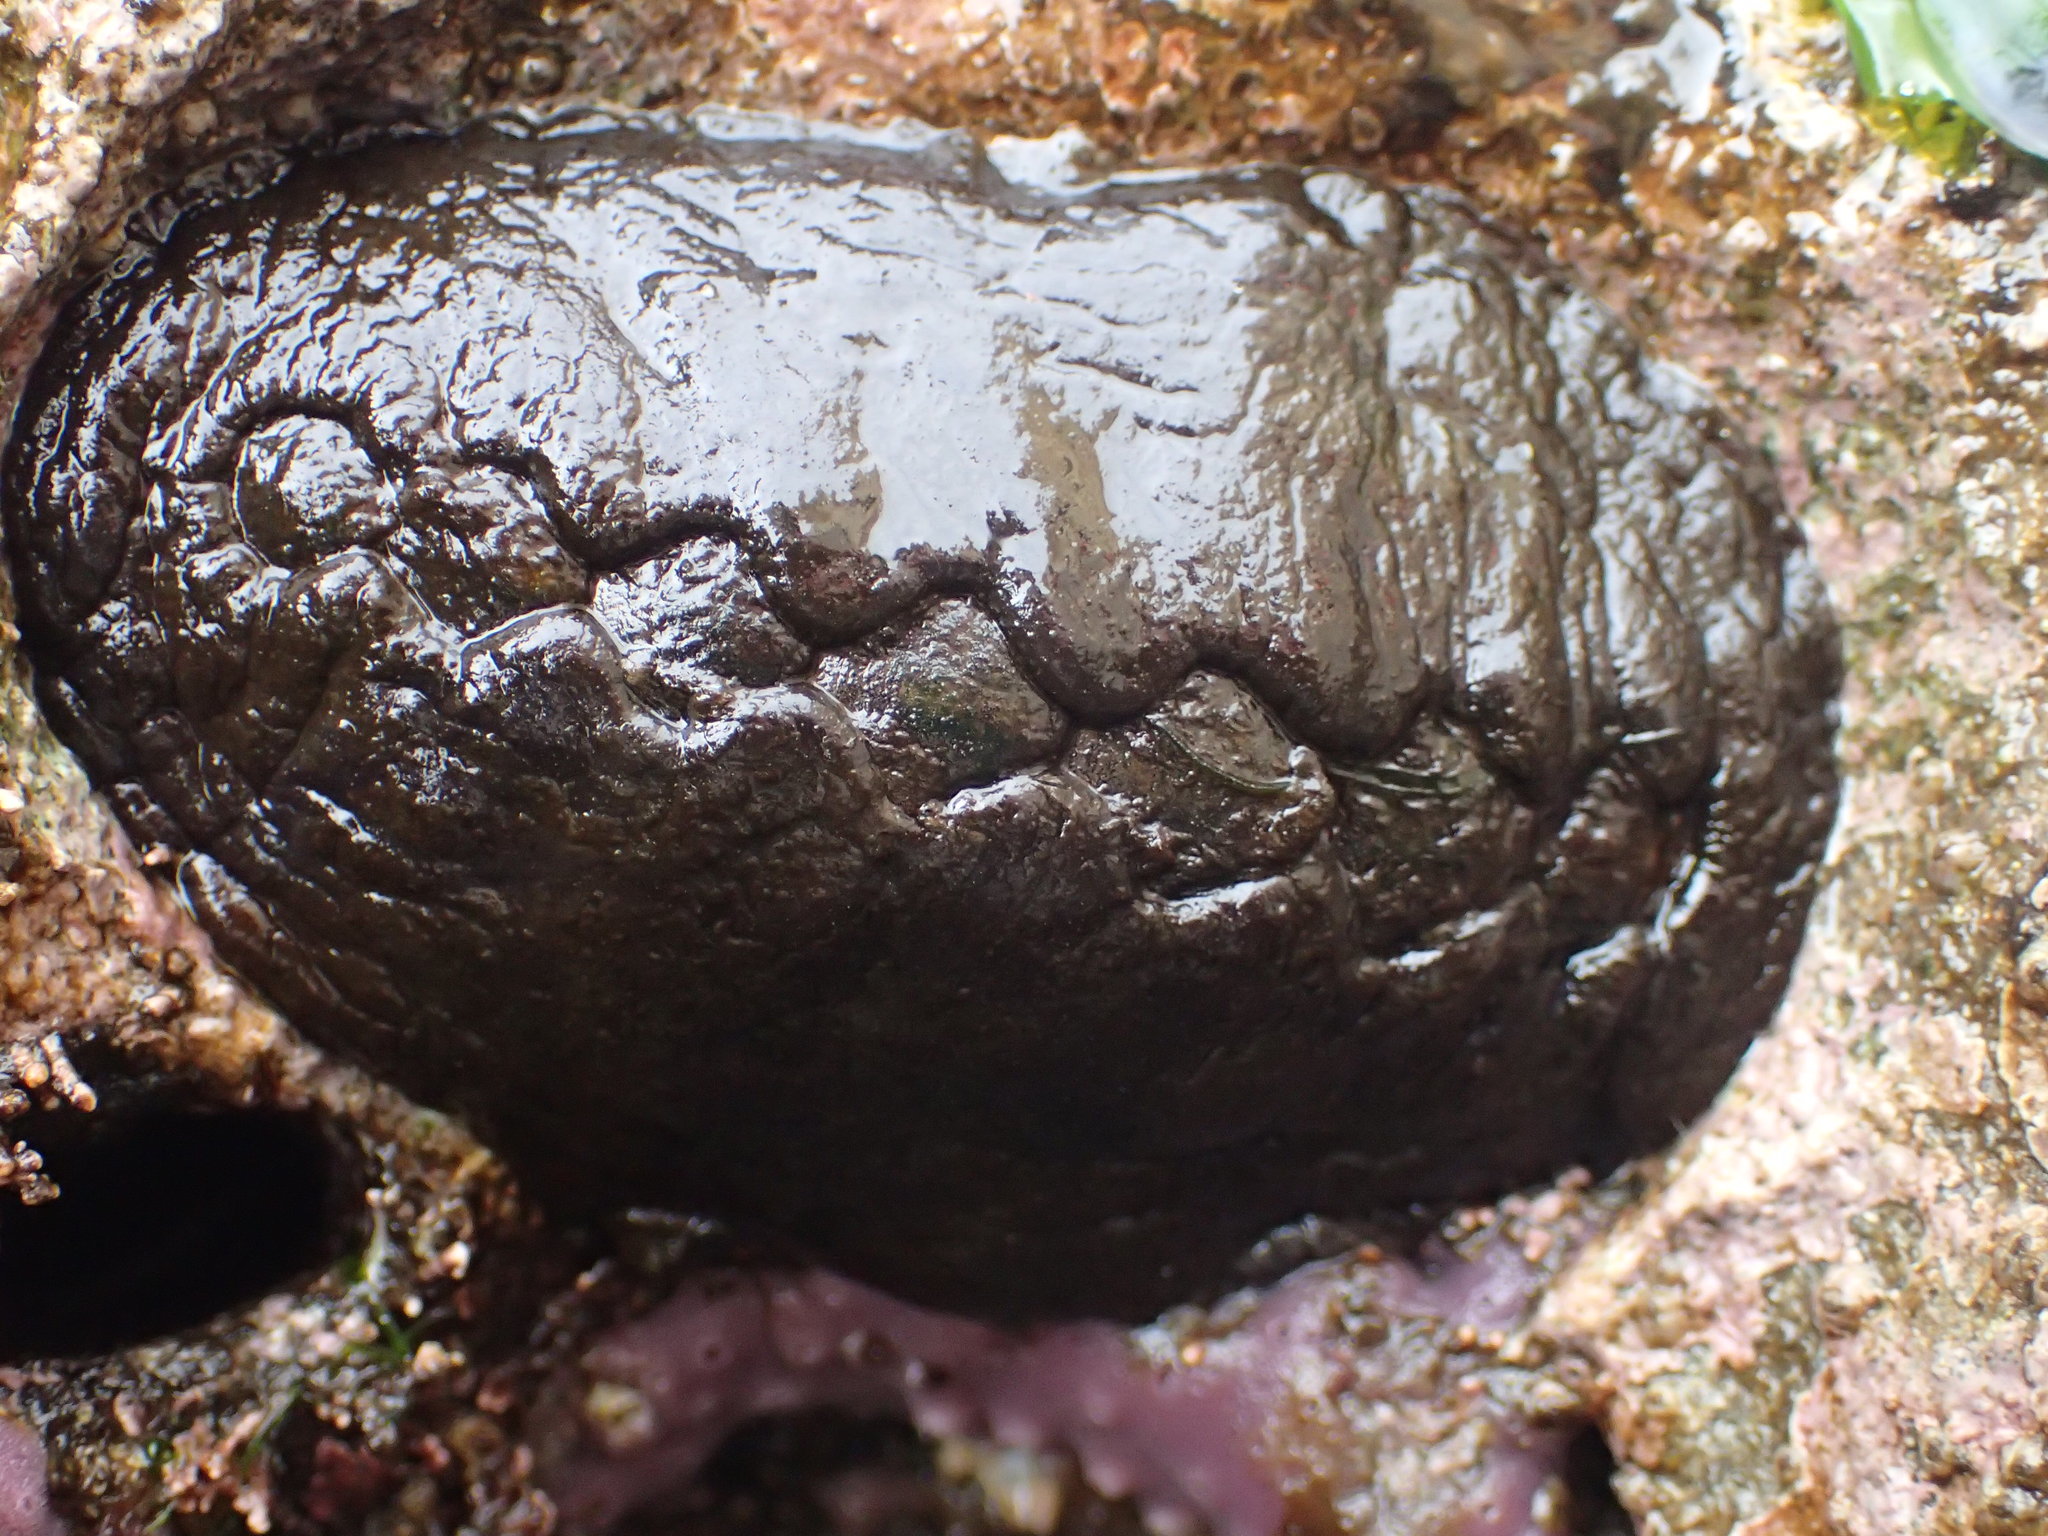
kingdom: Animalia
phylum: Mollusca
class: Polyplacophora
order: Chitonida
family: Mopaliidae
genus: Katharina
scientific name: Katharina tunicata
